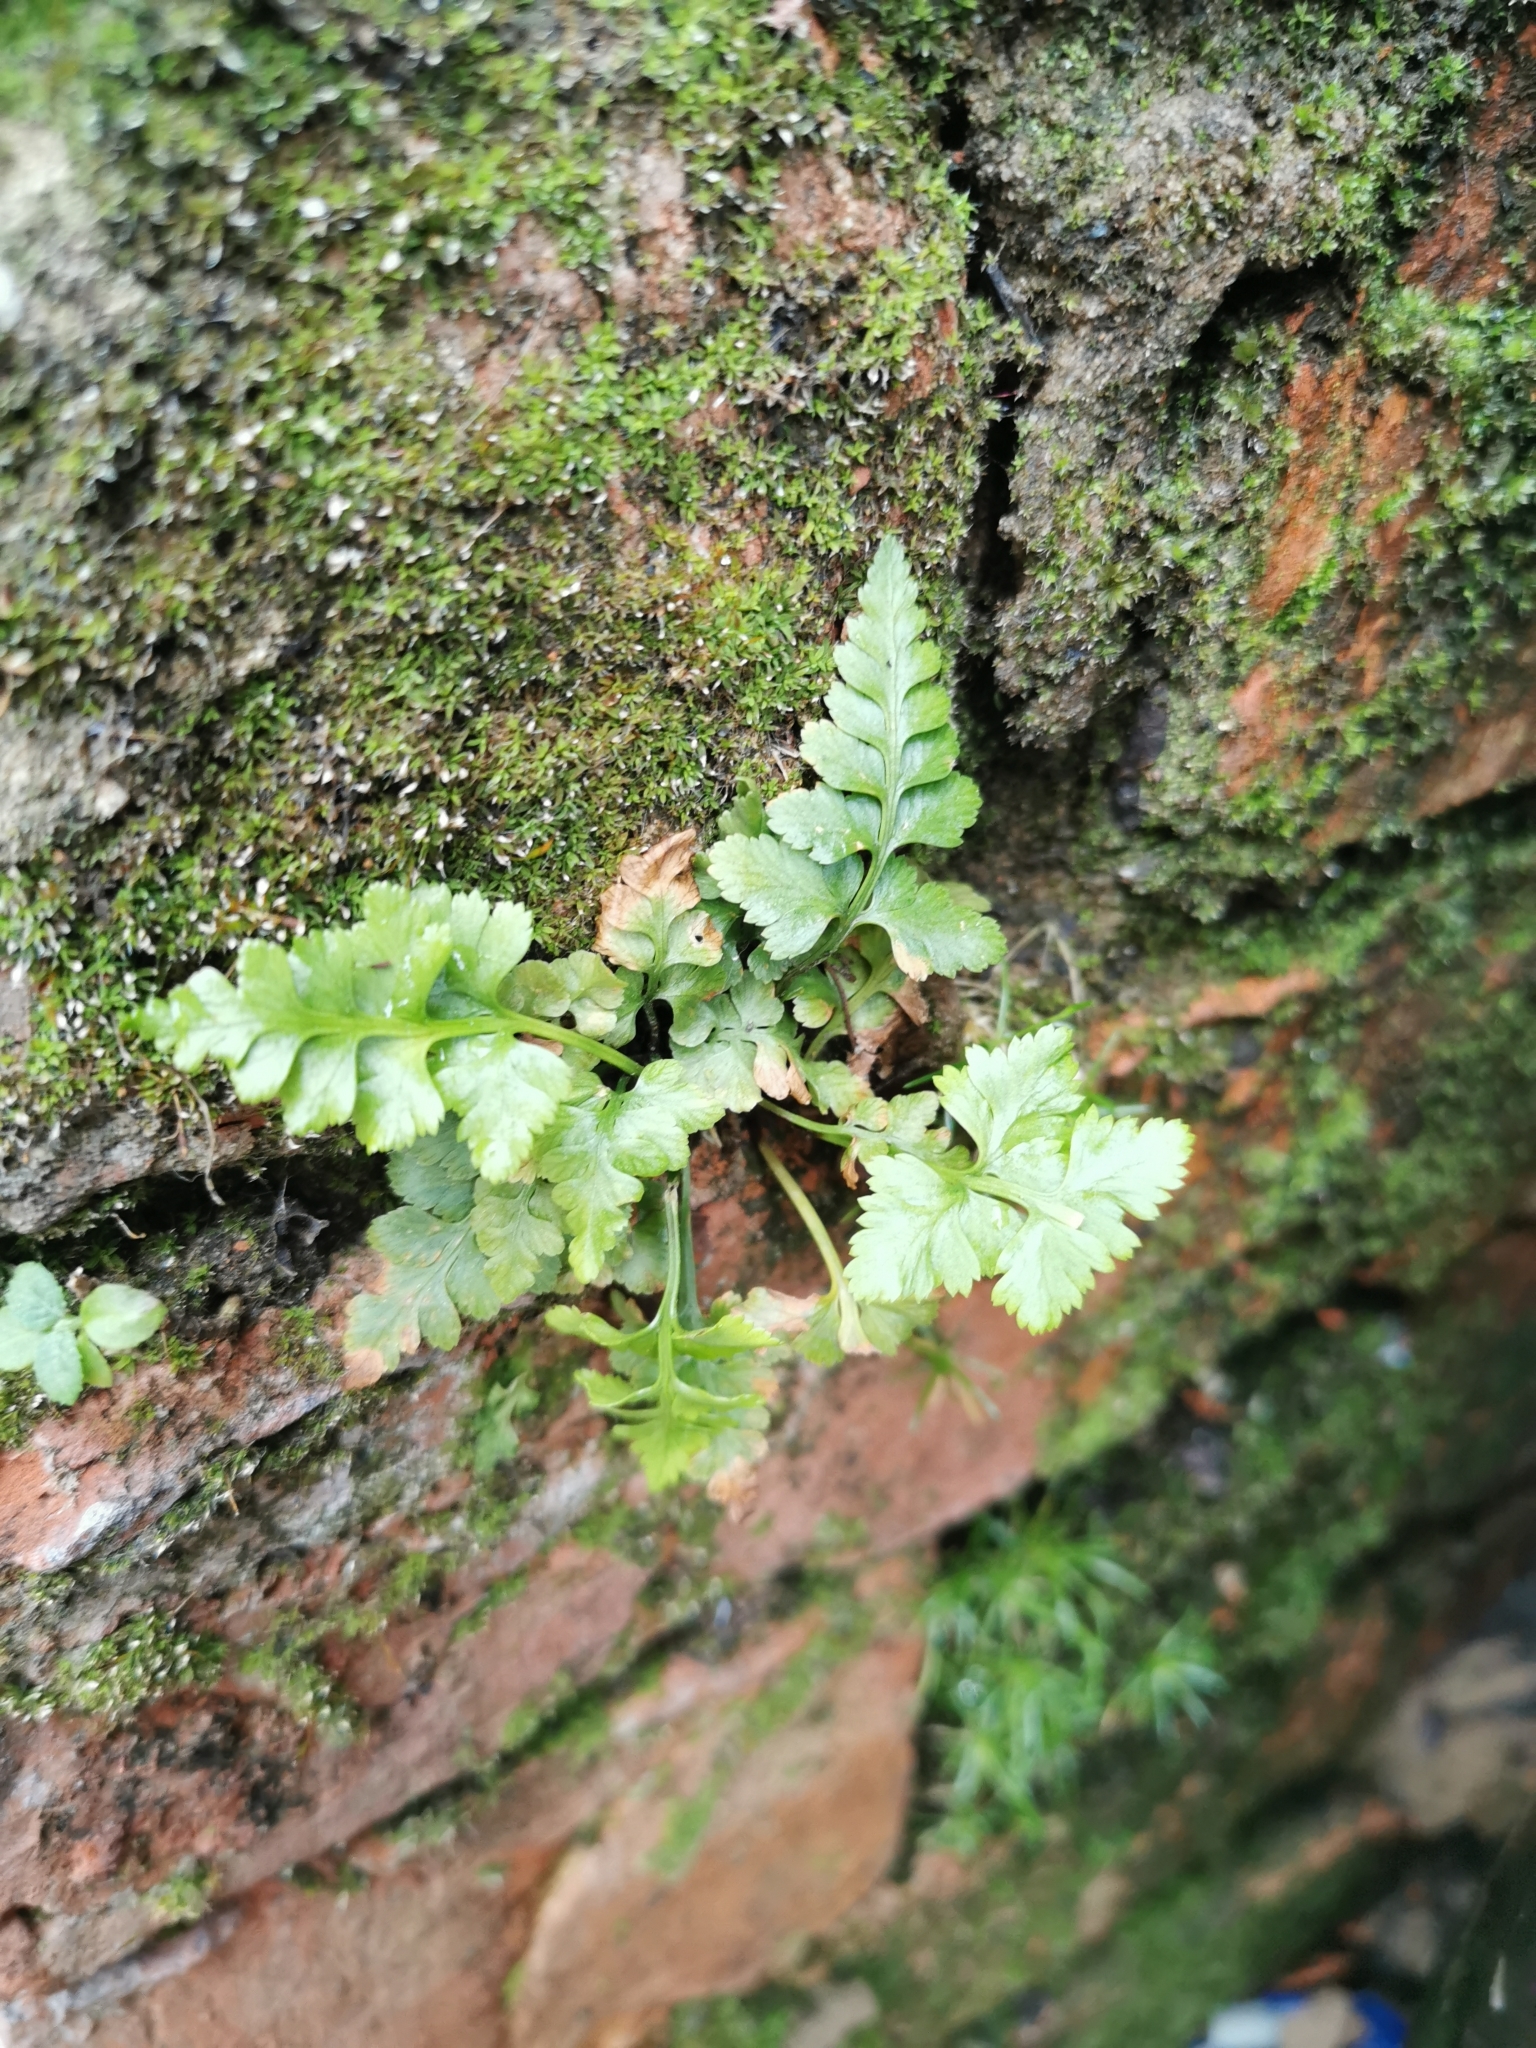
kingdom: Plantae
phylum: Tracheophyta
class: Polypodiopsida
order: Polypodiales
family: Aspleniaceae
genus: Asplenium
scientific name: Asplenium adiantum-nigrum
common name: Black spleenwort
